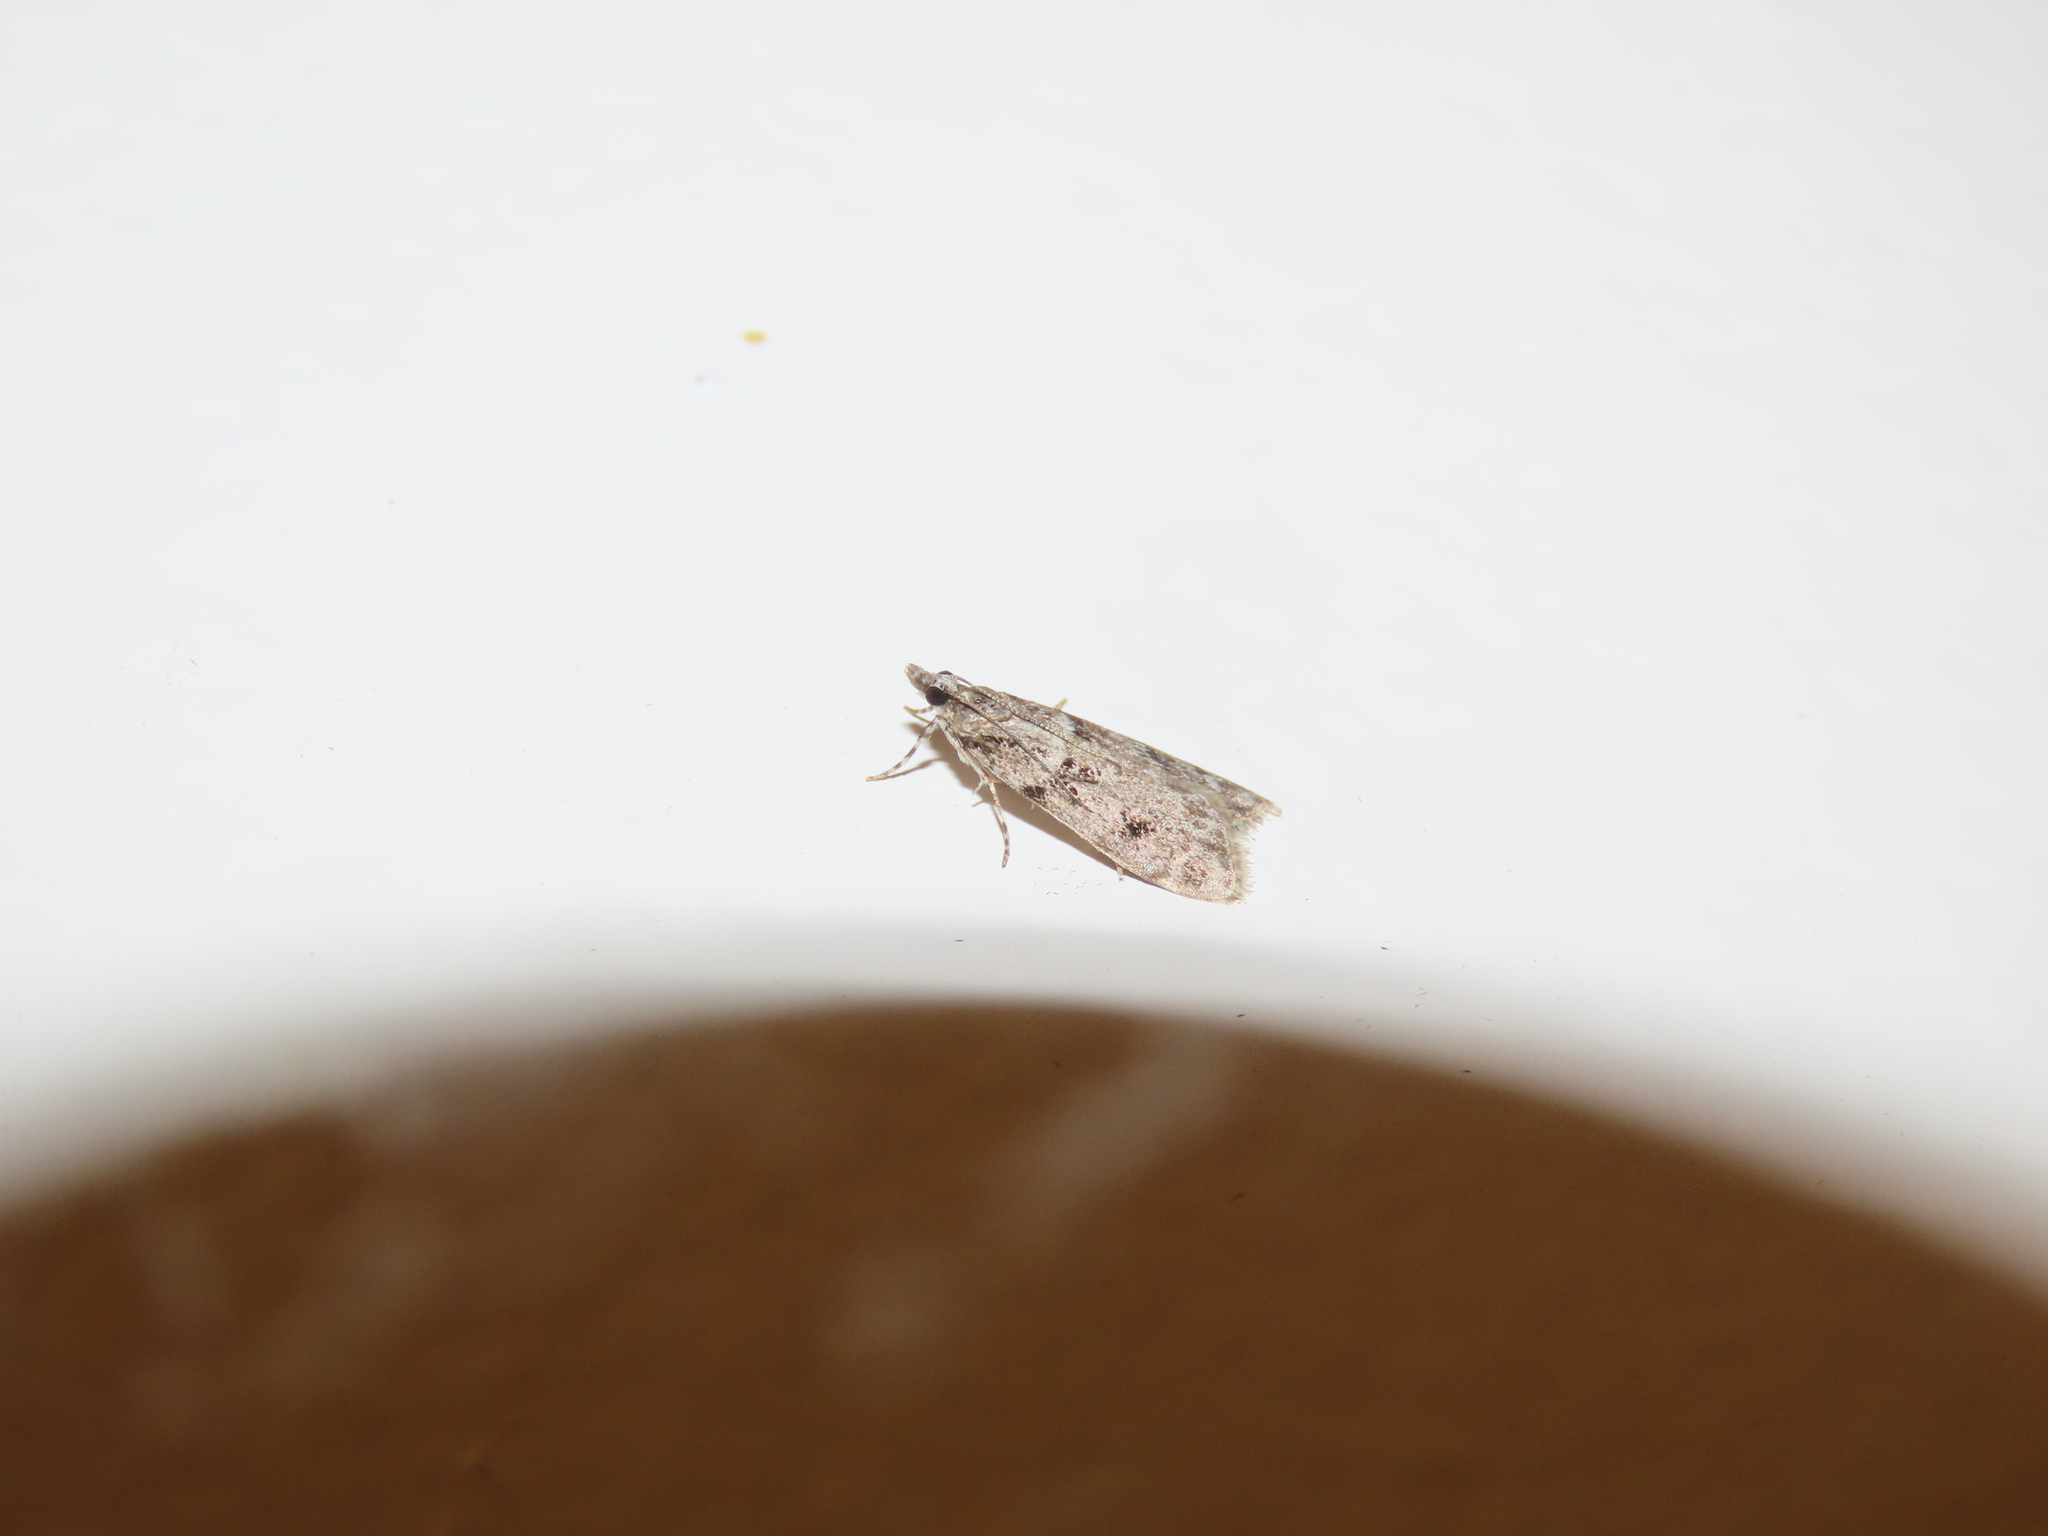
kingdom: Animalia
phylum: Arthropoda
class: Insecta
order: Lepidoptera
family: Crambidae
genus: Scoparia
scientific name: Scoparia biplagialis
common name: Double-striped scoparia moth
